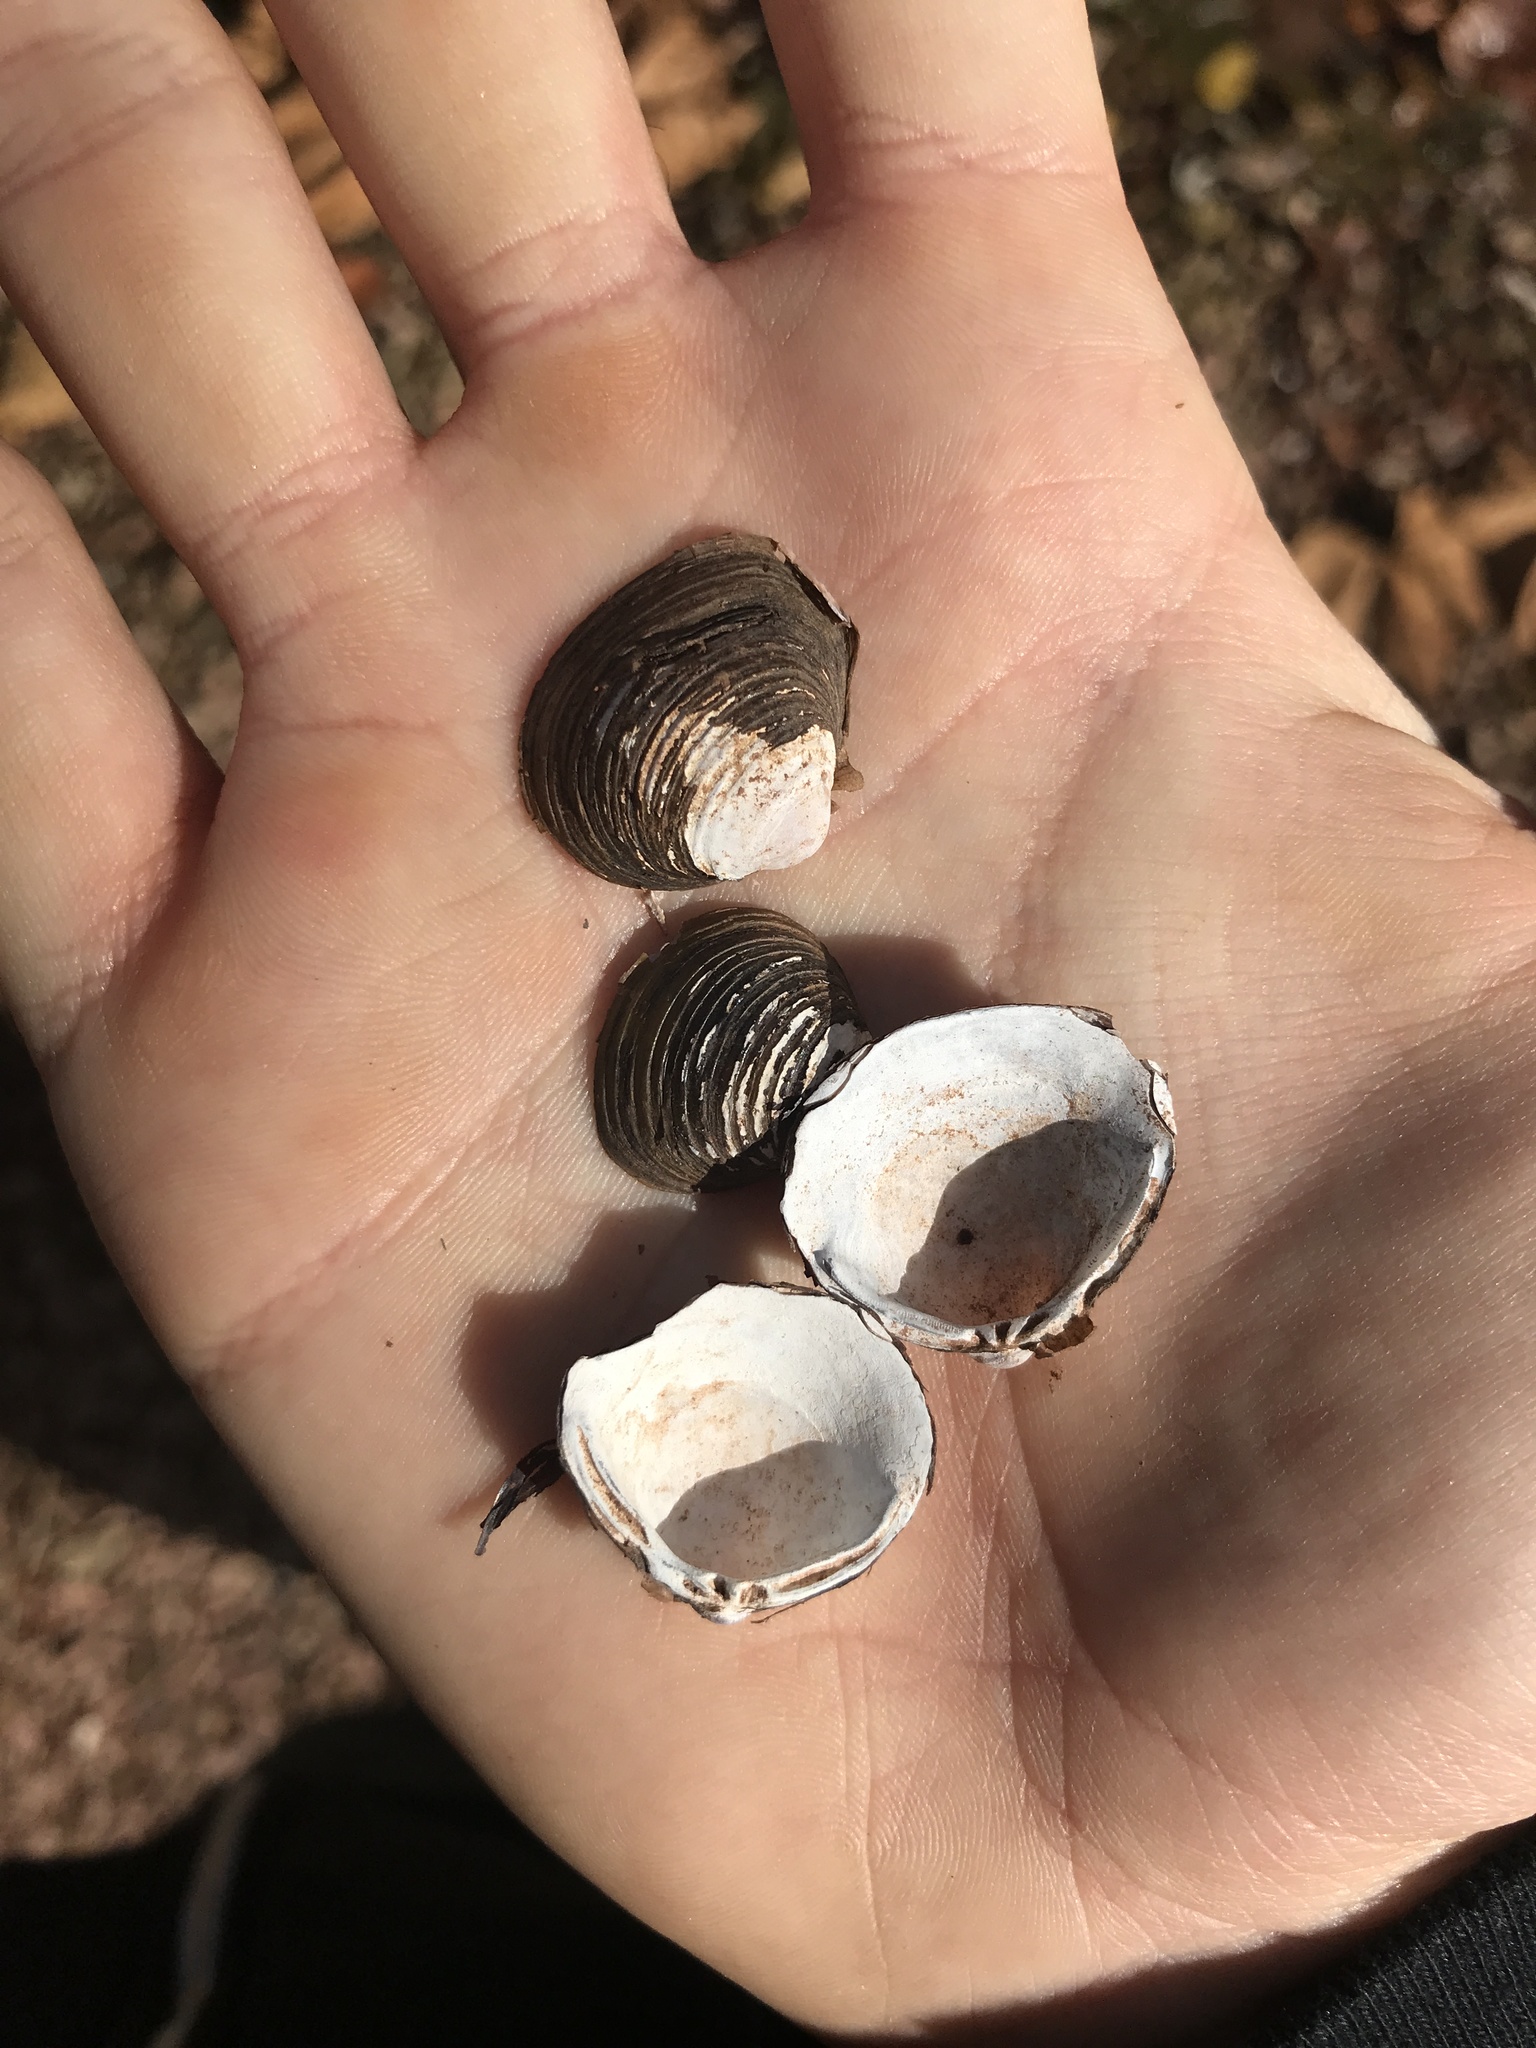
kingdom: Animalia
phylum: Mollusca
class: Bivalvia
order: Venerida
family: Cyrenidae
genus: Corbicula
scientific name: Corbicula fluminea
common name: Asian clam
